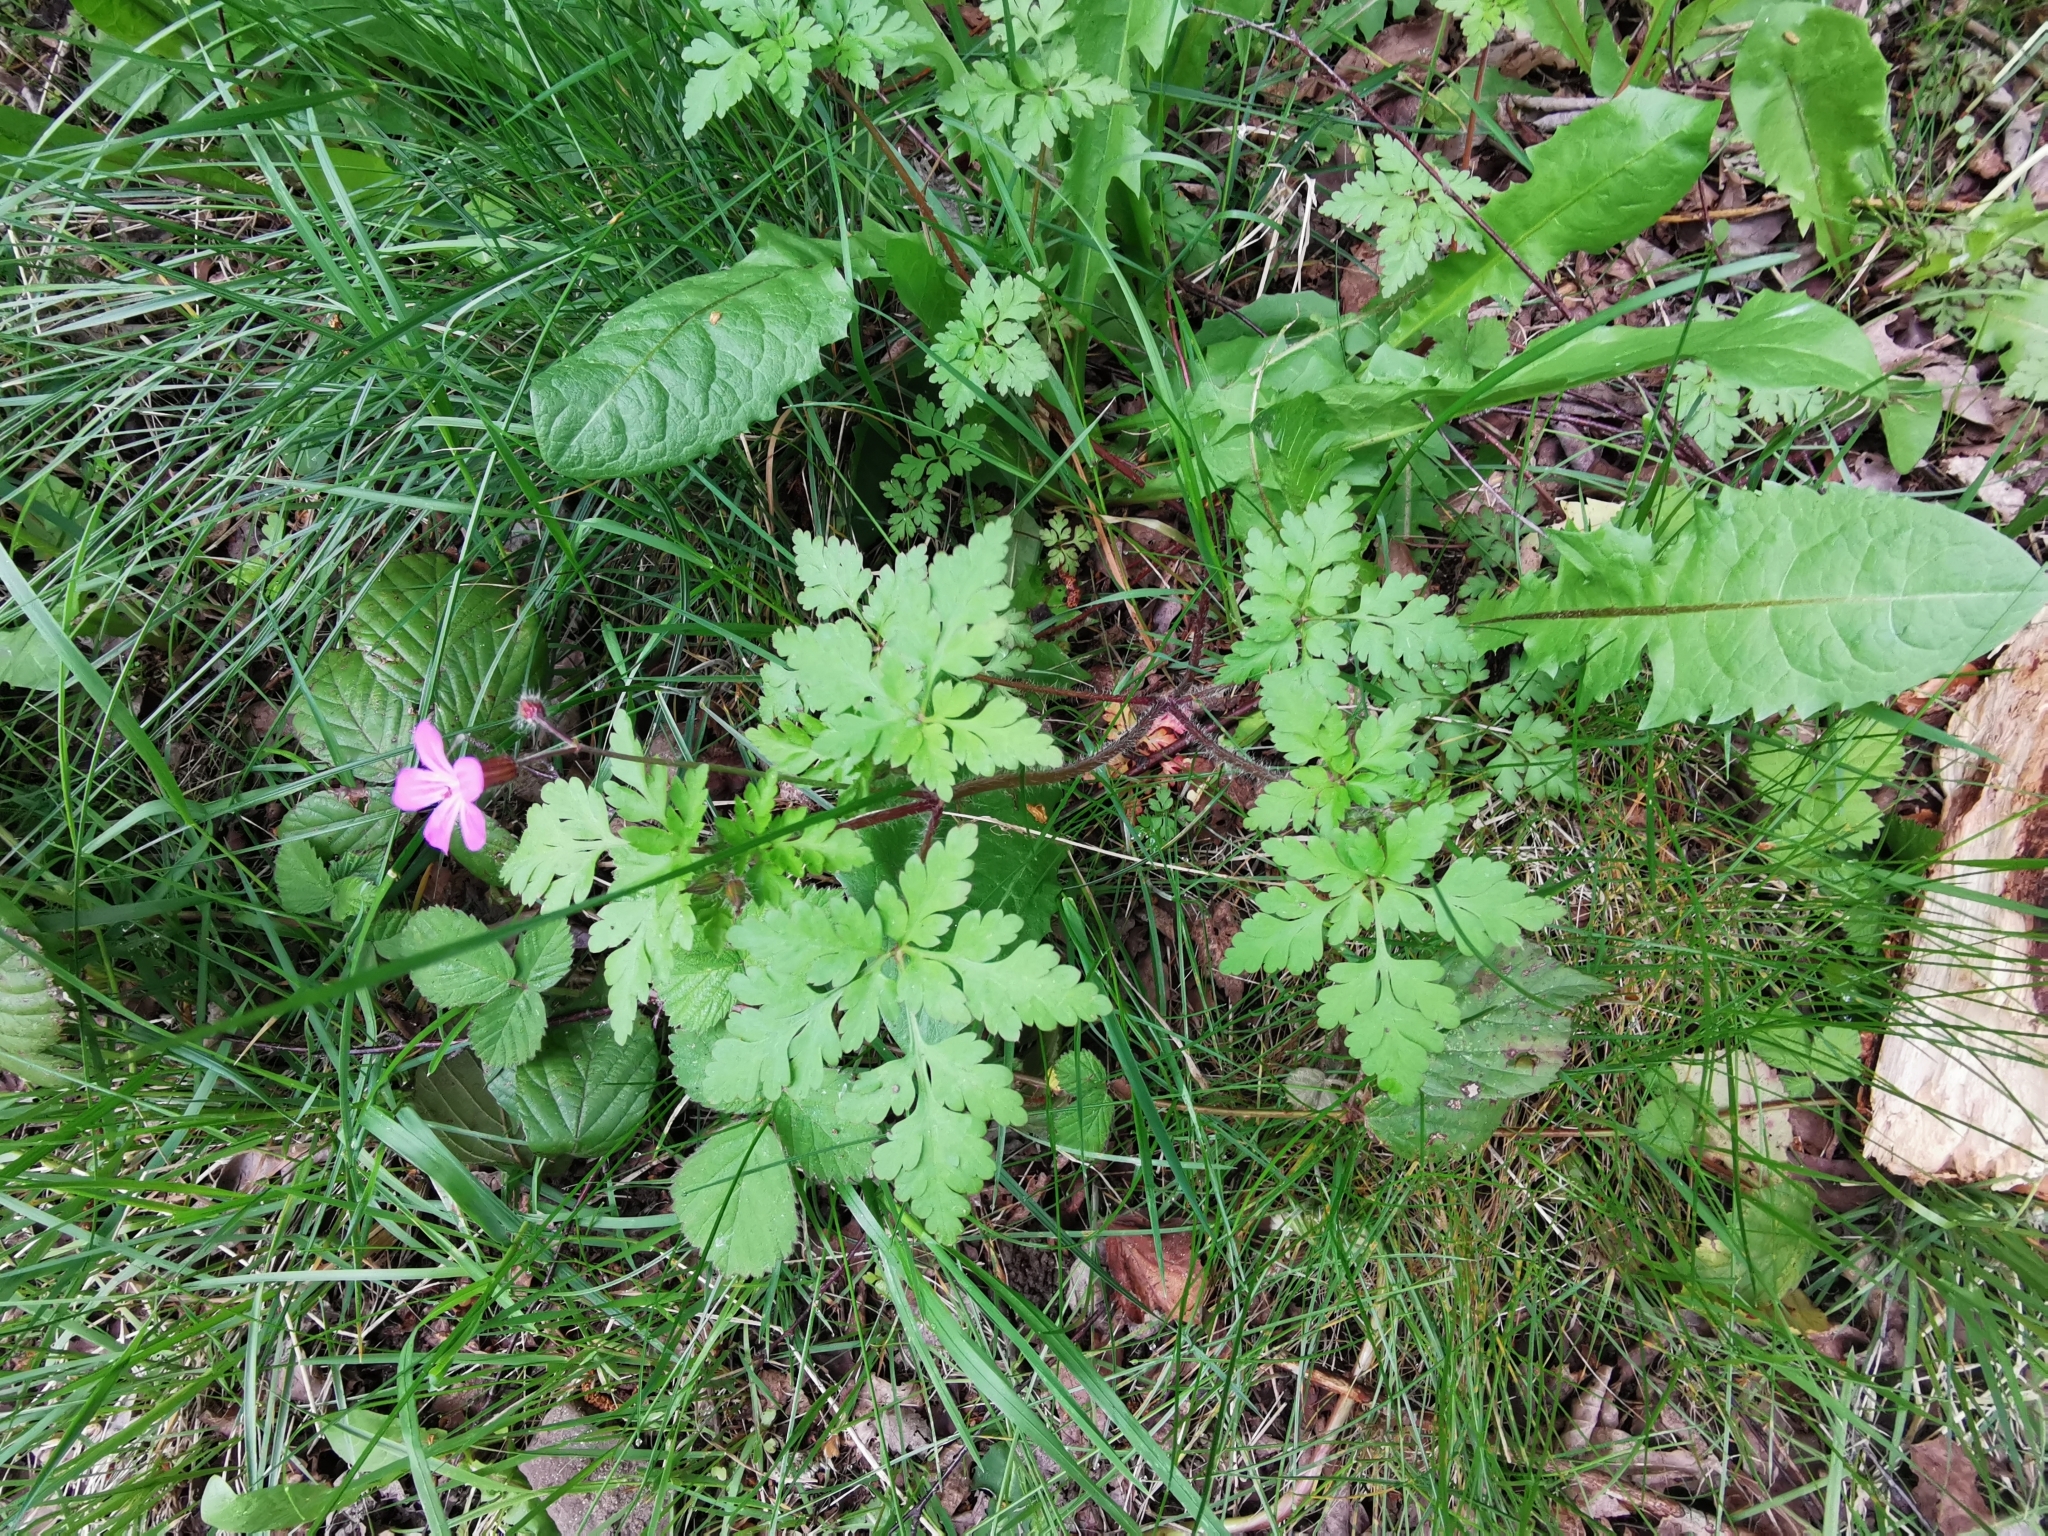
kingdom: Plantae
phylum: Tracheophyta
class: Magnoliopsida
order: Geraniales
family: Geraniaceae
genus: Geranium
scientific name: Geranium robertianum
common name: Herb-robert
